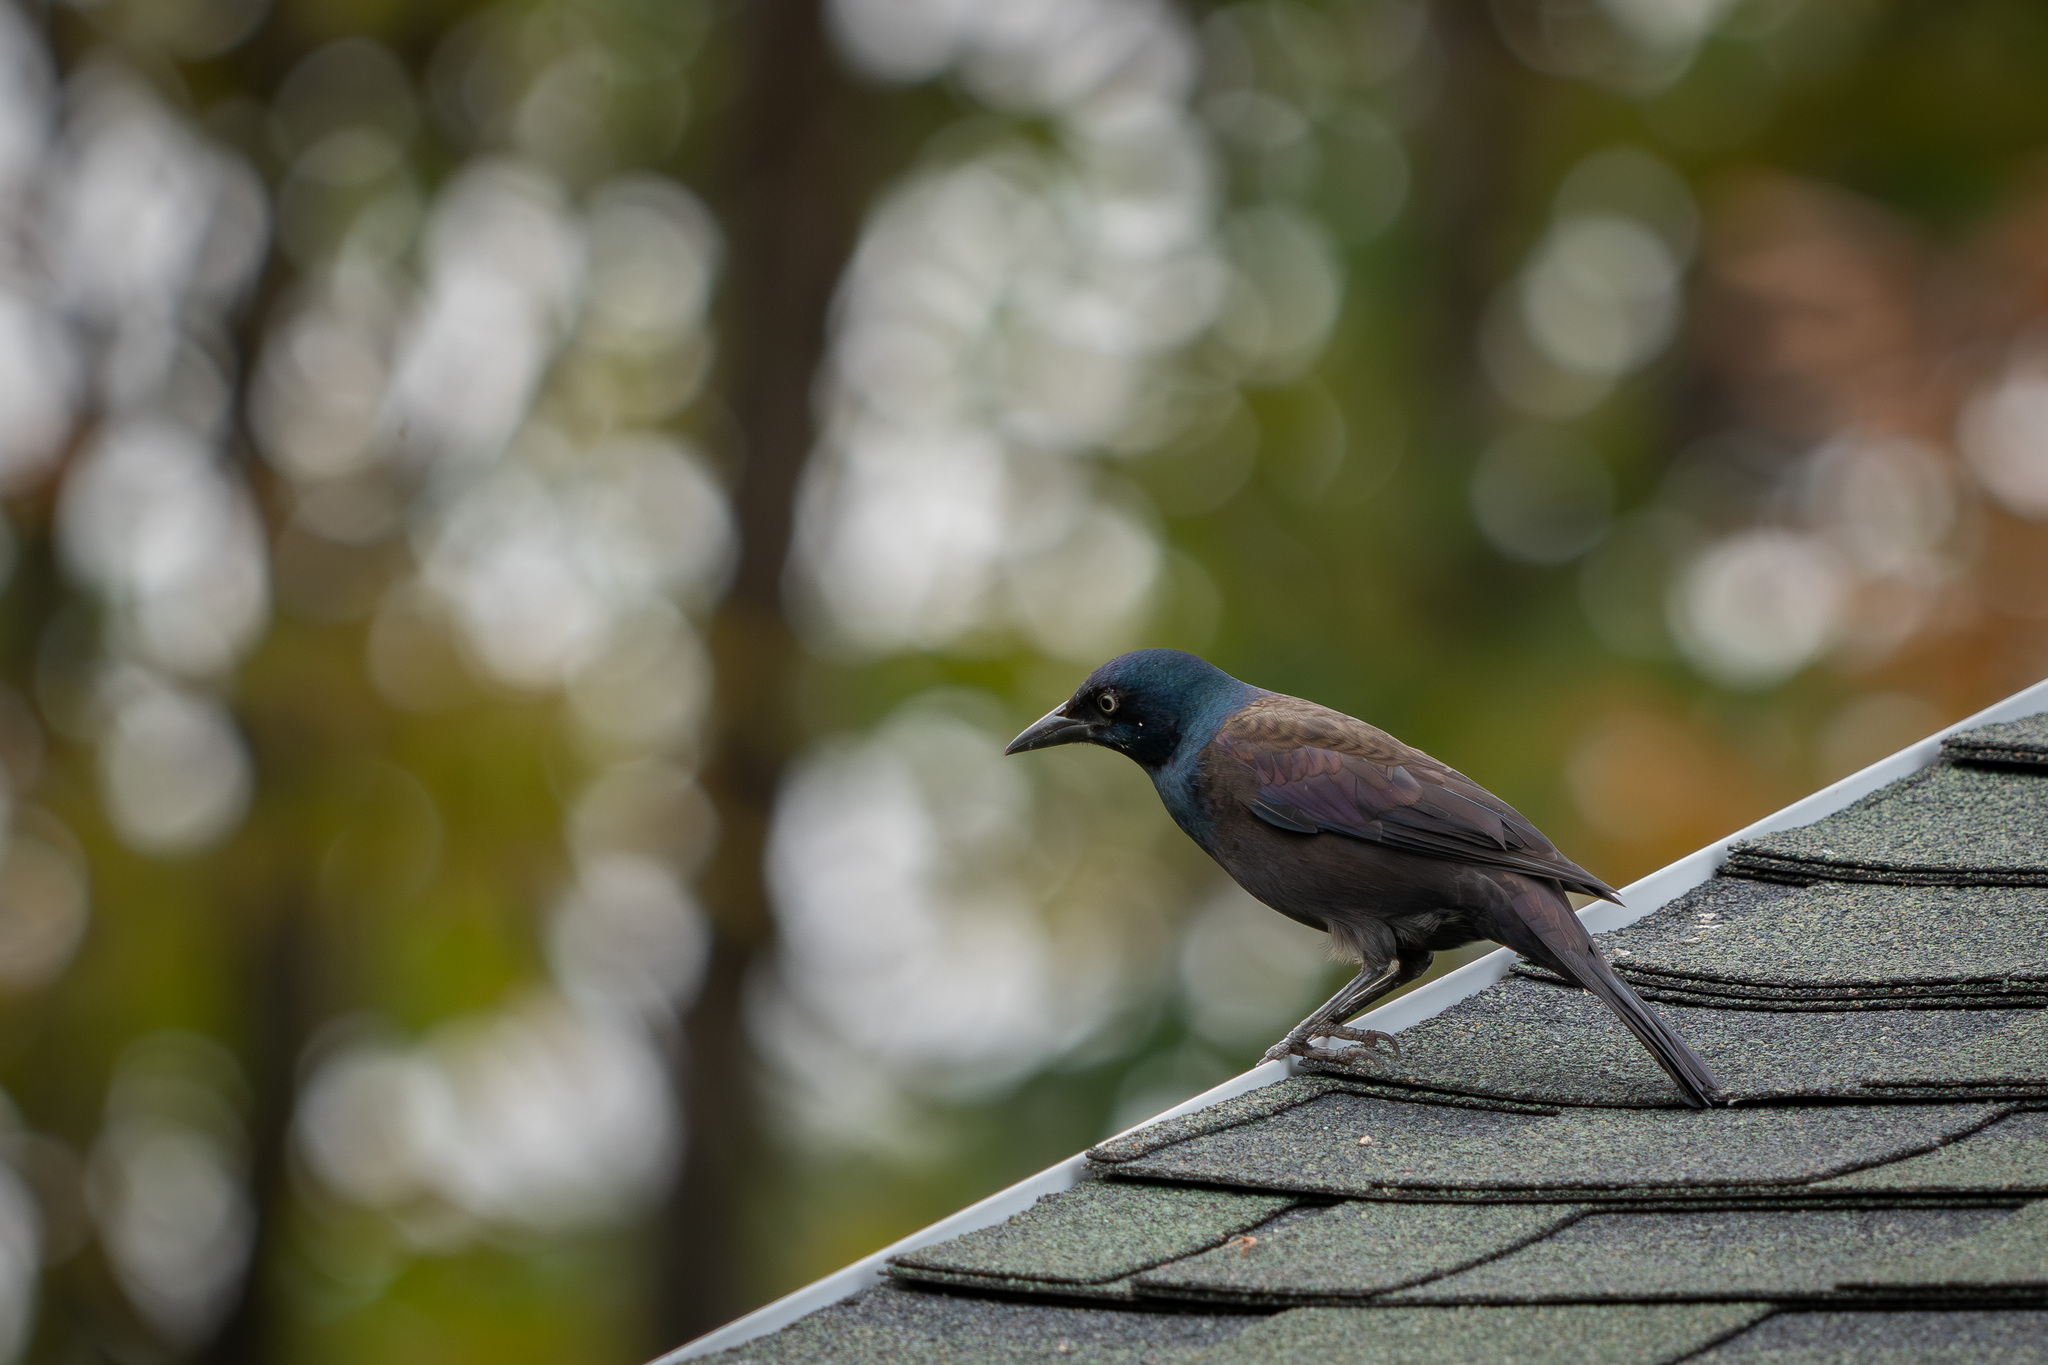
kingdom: Animalia
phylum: Chordata
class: Aves
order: Passeriformes
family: Icteridae
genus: Quiscalus
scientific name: Quiscalus quiscula
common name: Common grackle
